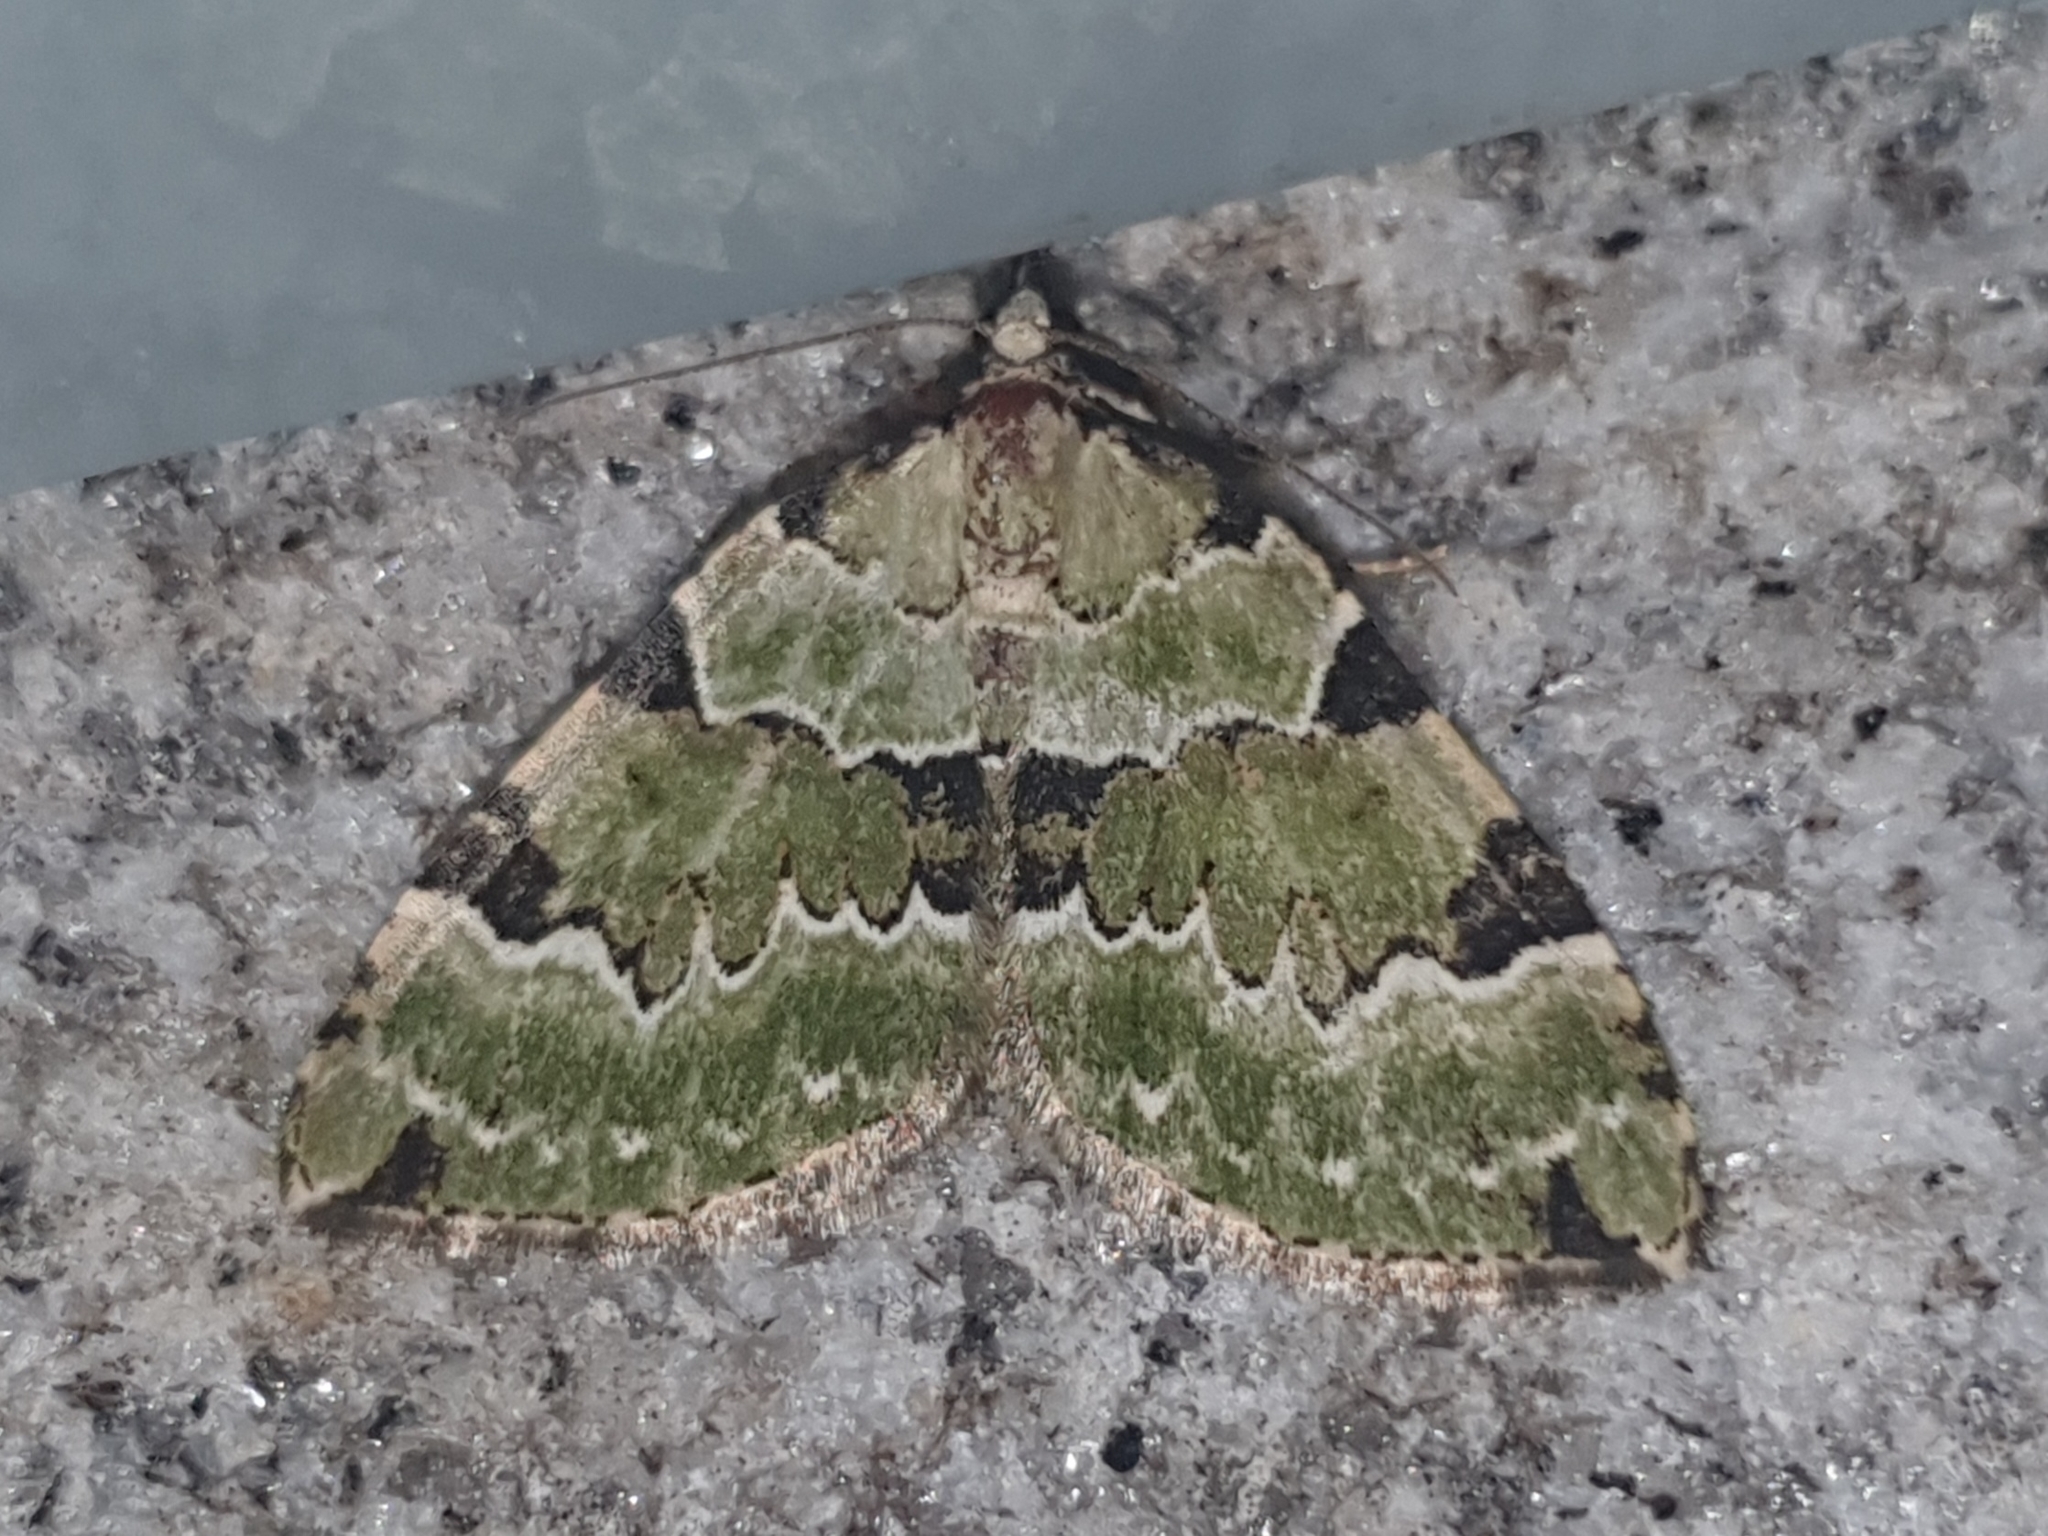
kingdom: Animalia
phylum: Arthropoda
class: Insecta
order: Lepidoptera
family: Geometridae
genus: Colostygia
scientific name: Colostygia pectinataria
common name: Green carpet
